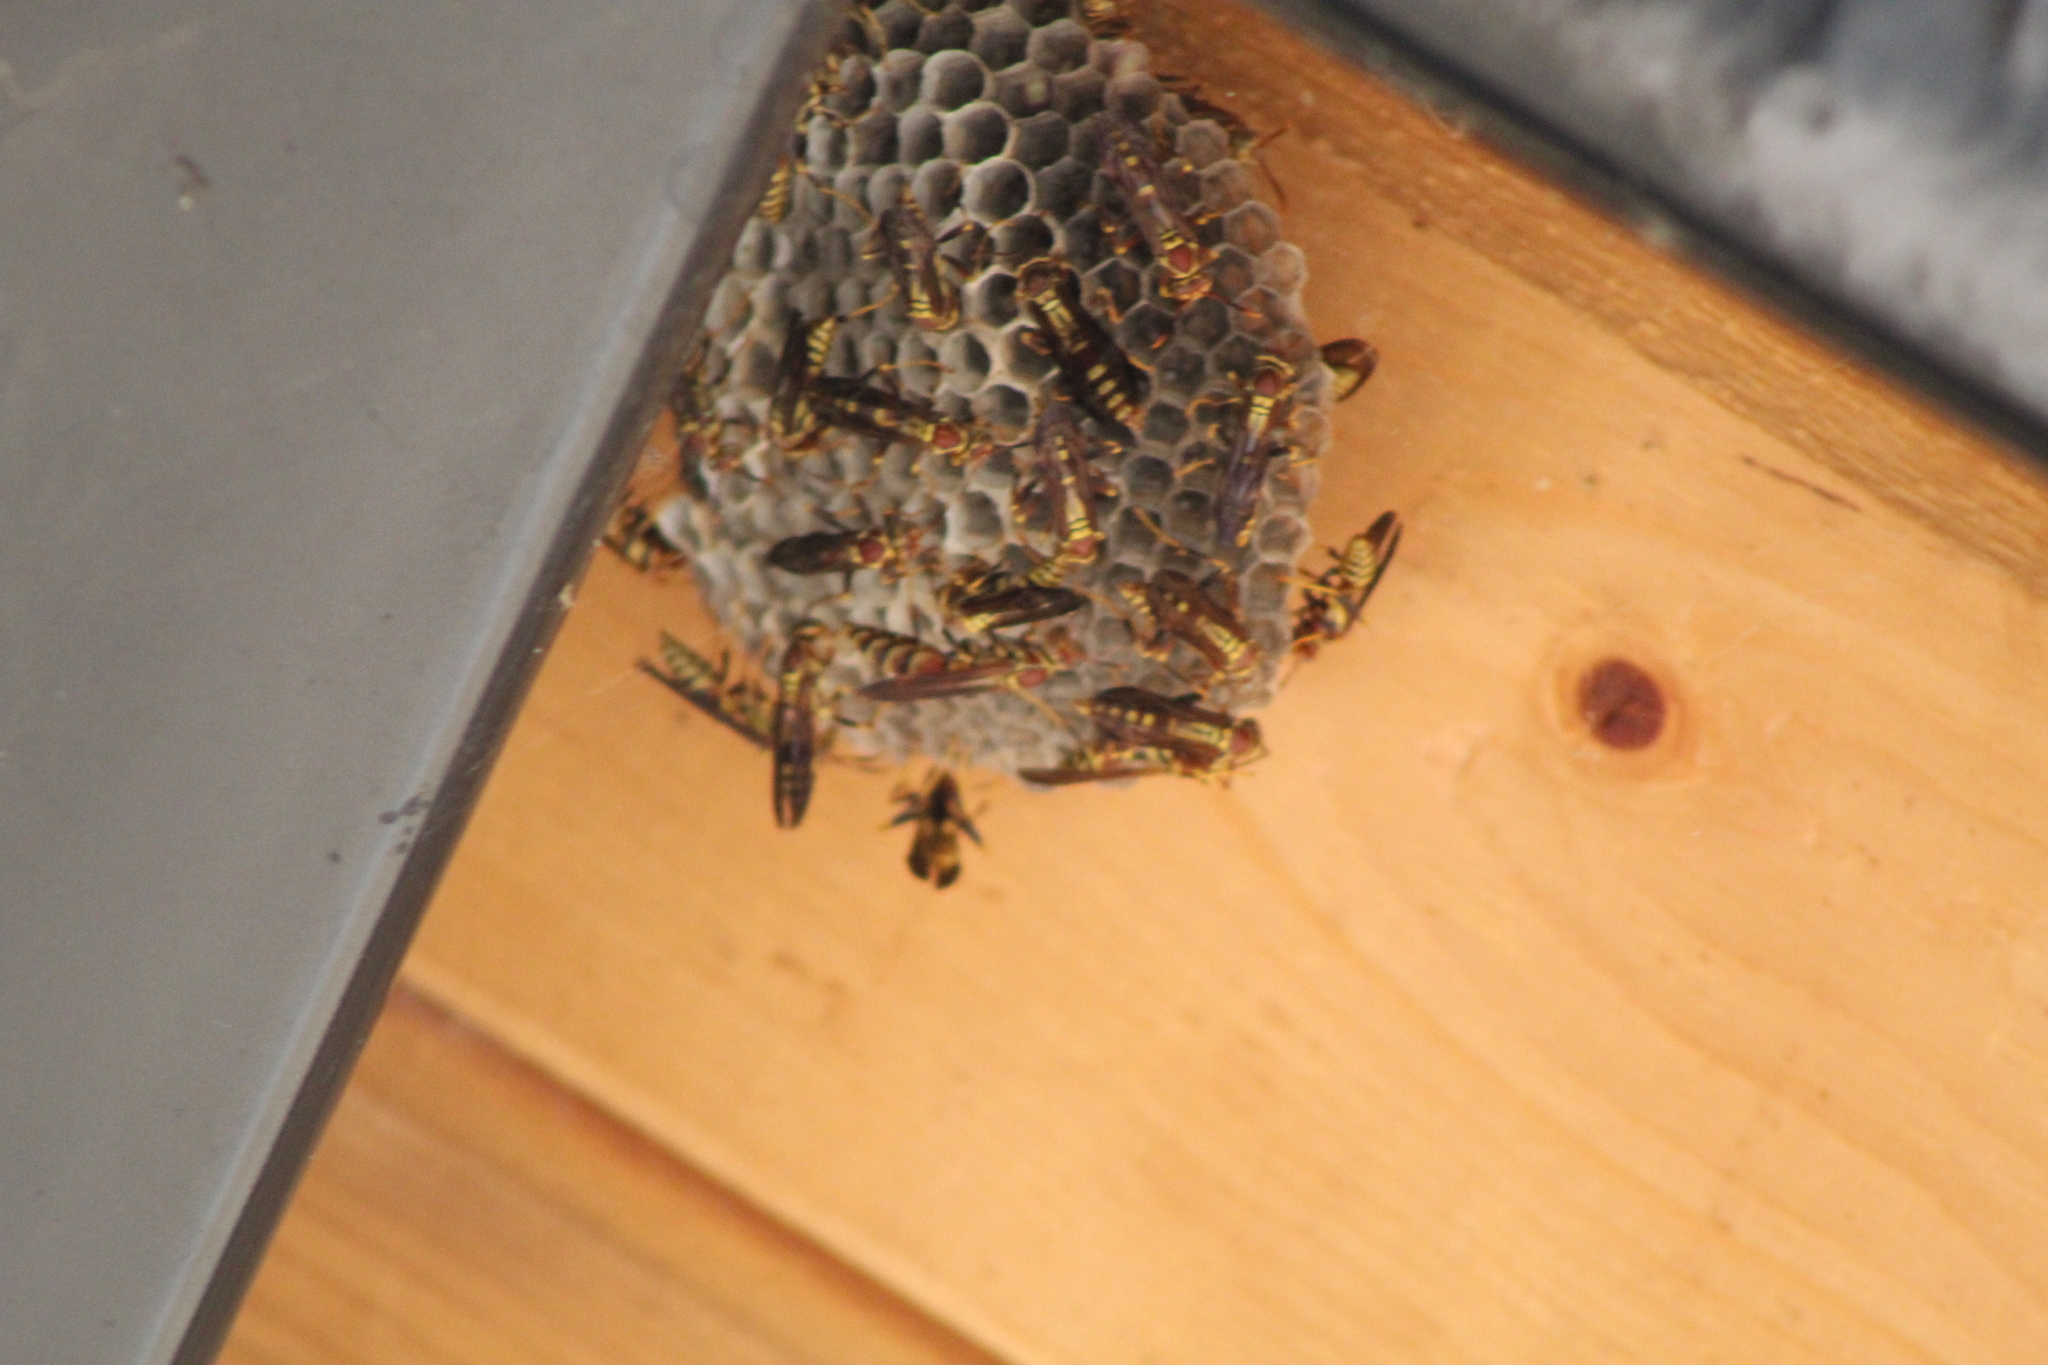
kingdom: Animalia
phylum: Arthropoda
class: Insecta
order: Hymenoptera
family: Eumenidae
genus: Polistes
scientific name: Polistes exclamans
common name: Paper wasp
